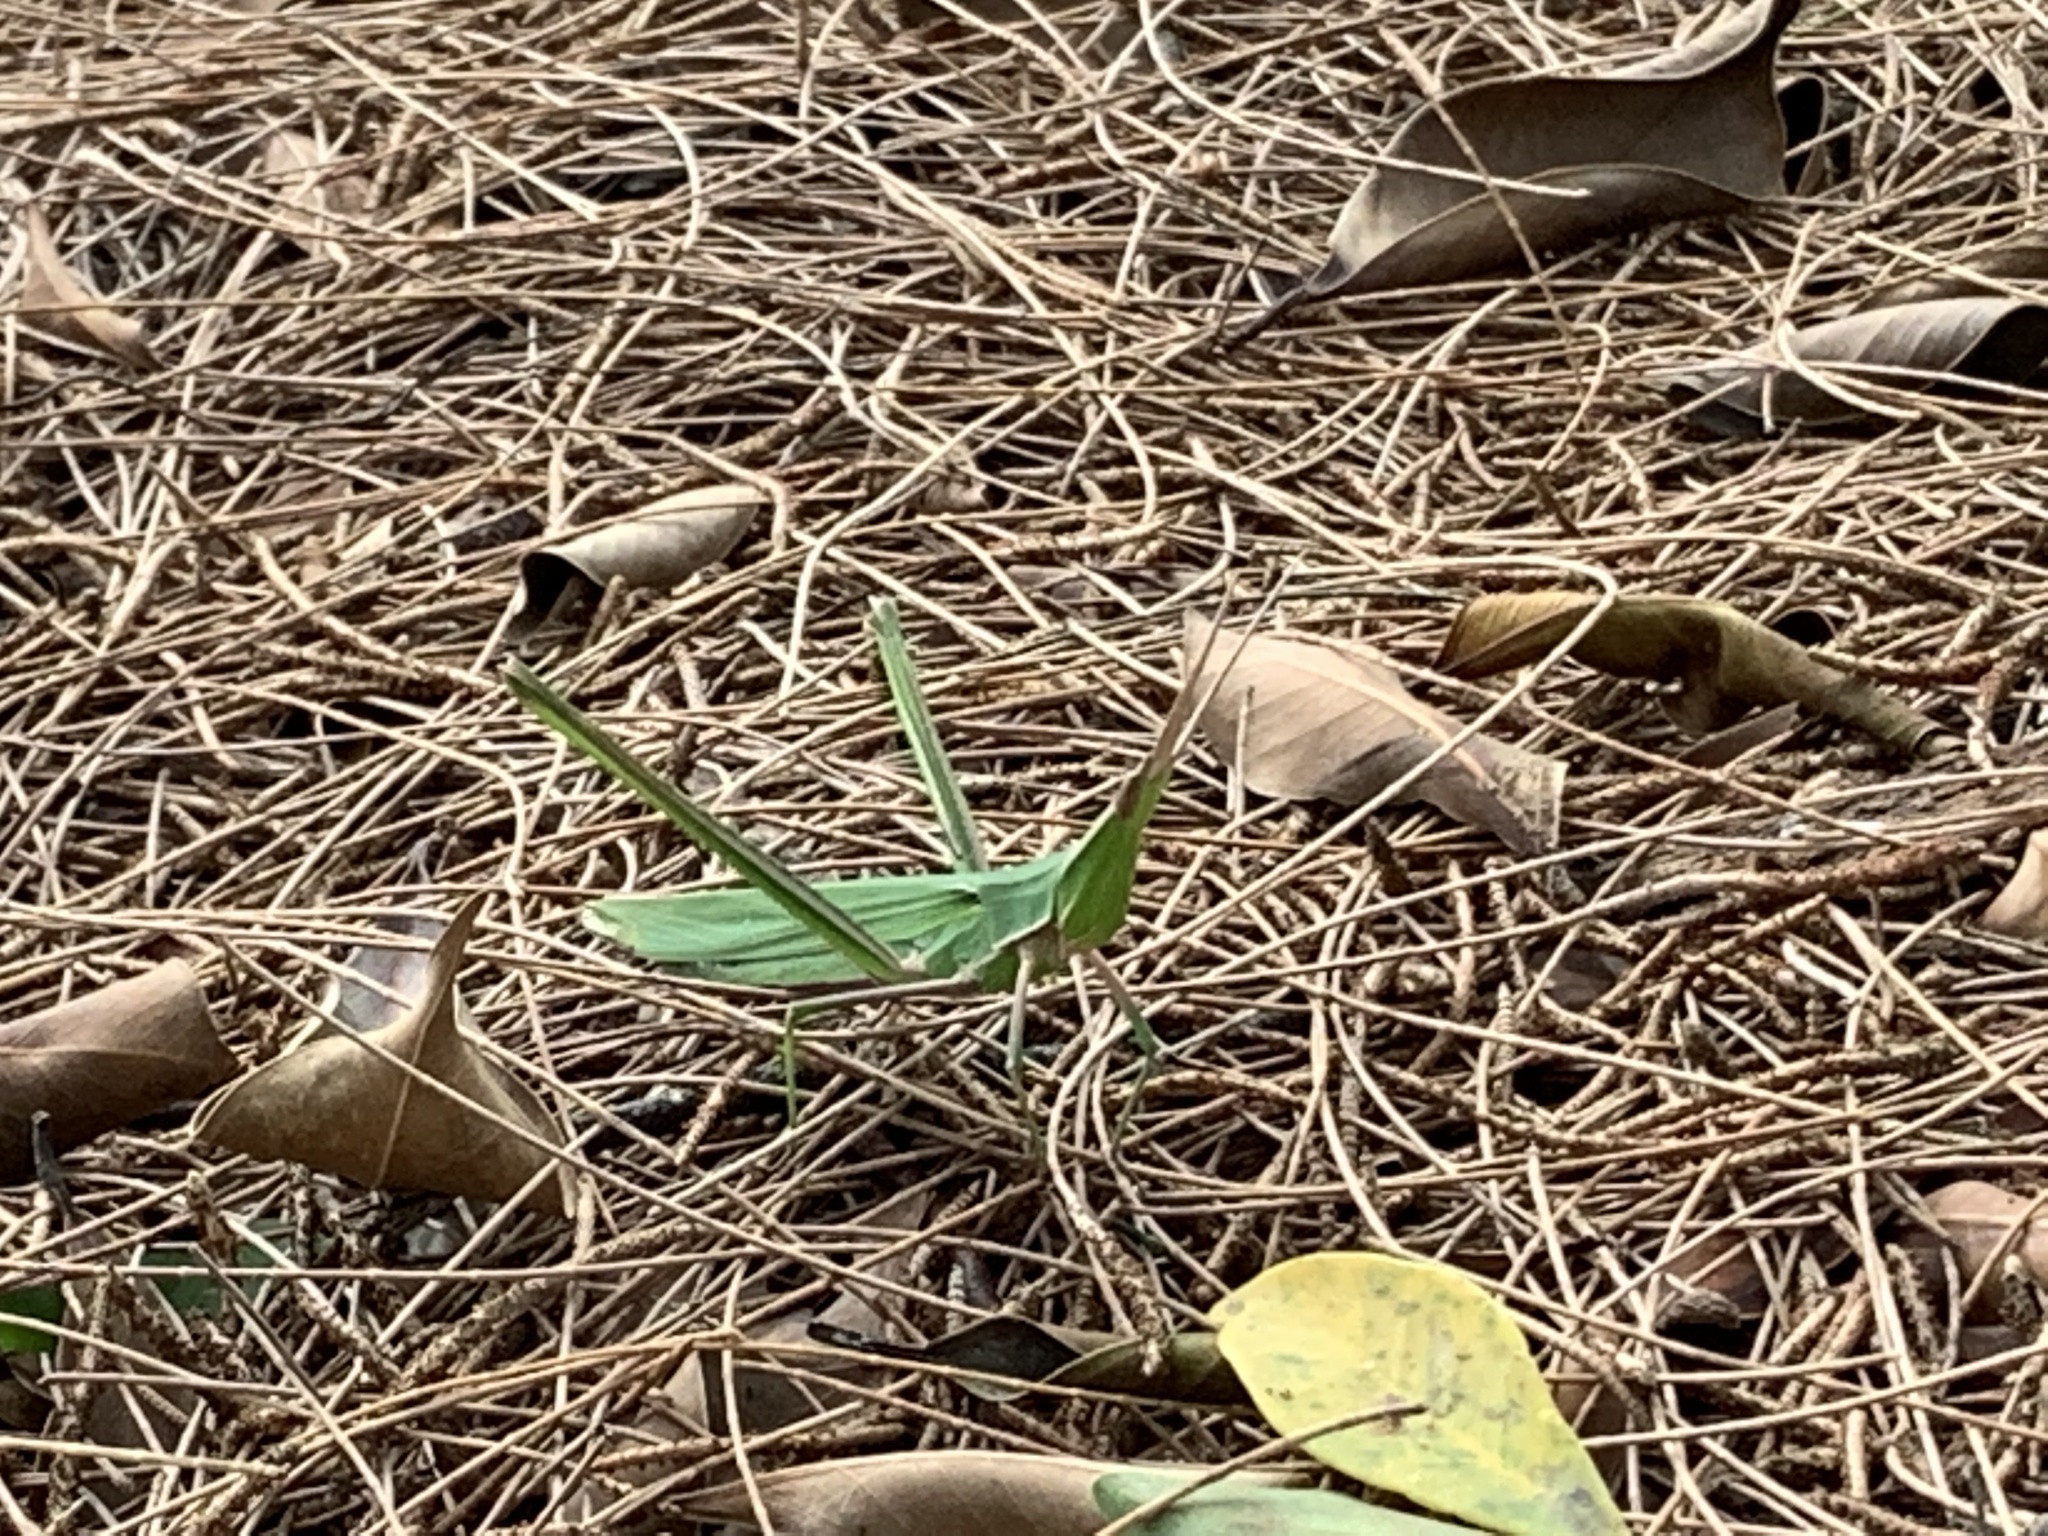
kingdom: Animalia
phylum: Arthropoda
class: Insecta
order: Orthoptera
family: Acrididae
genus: Acrida
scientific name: Acrida cinerea
